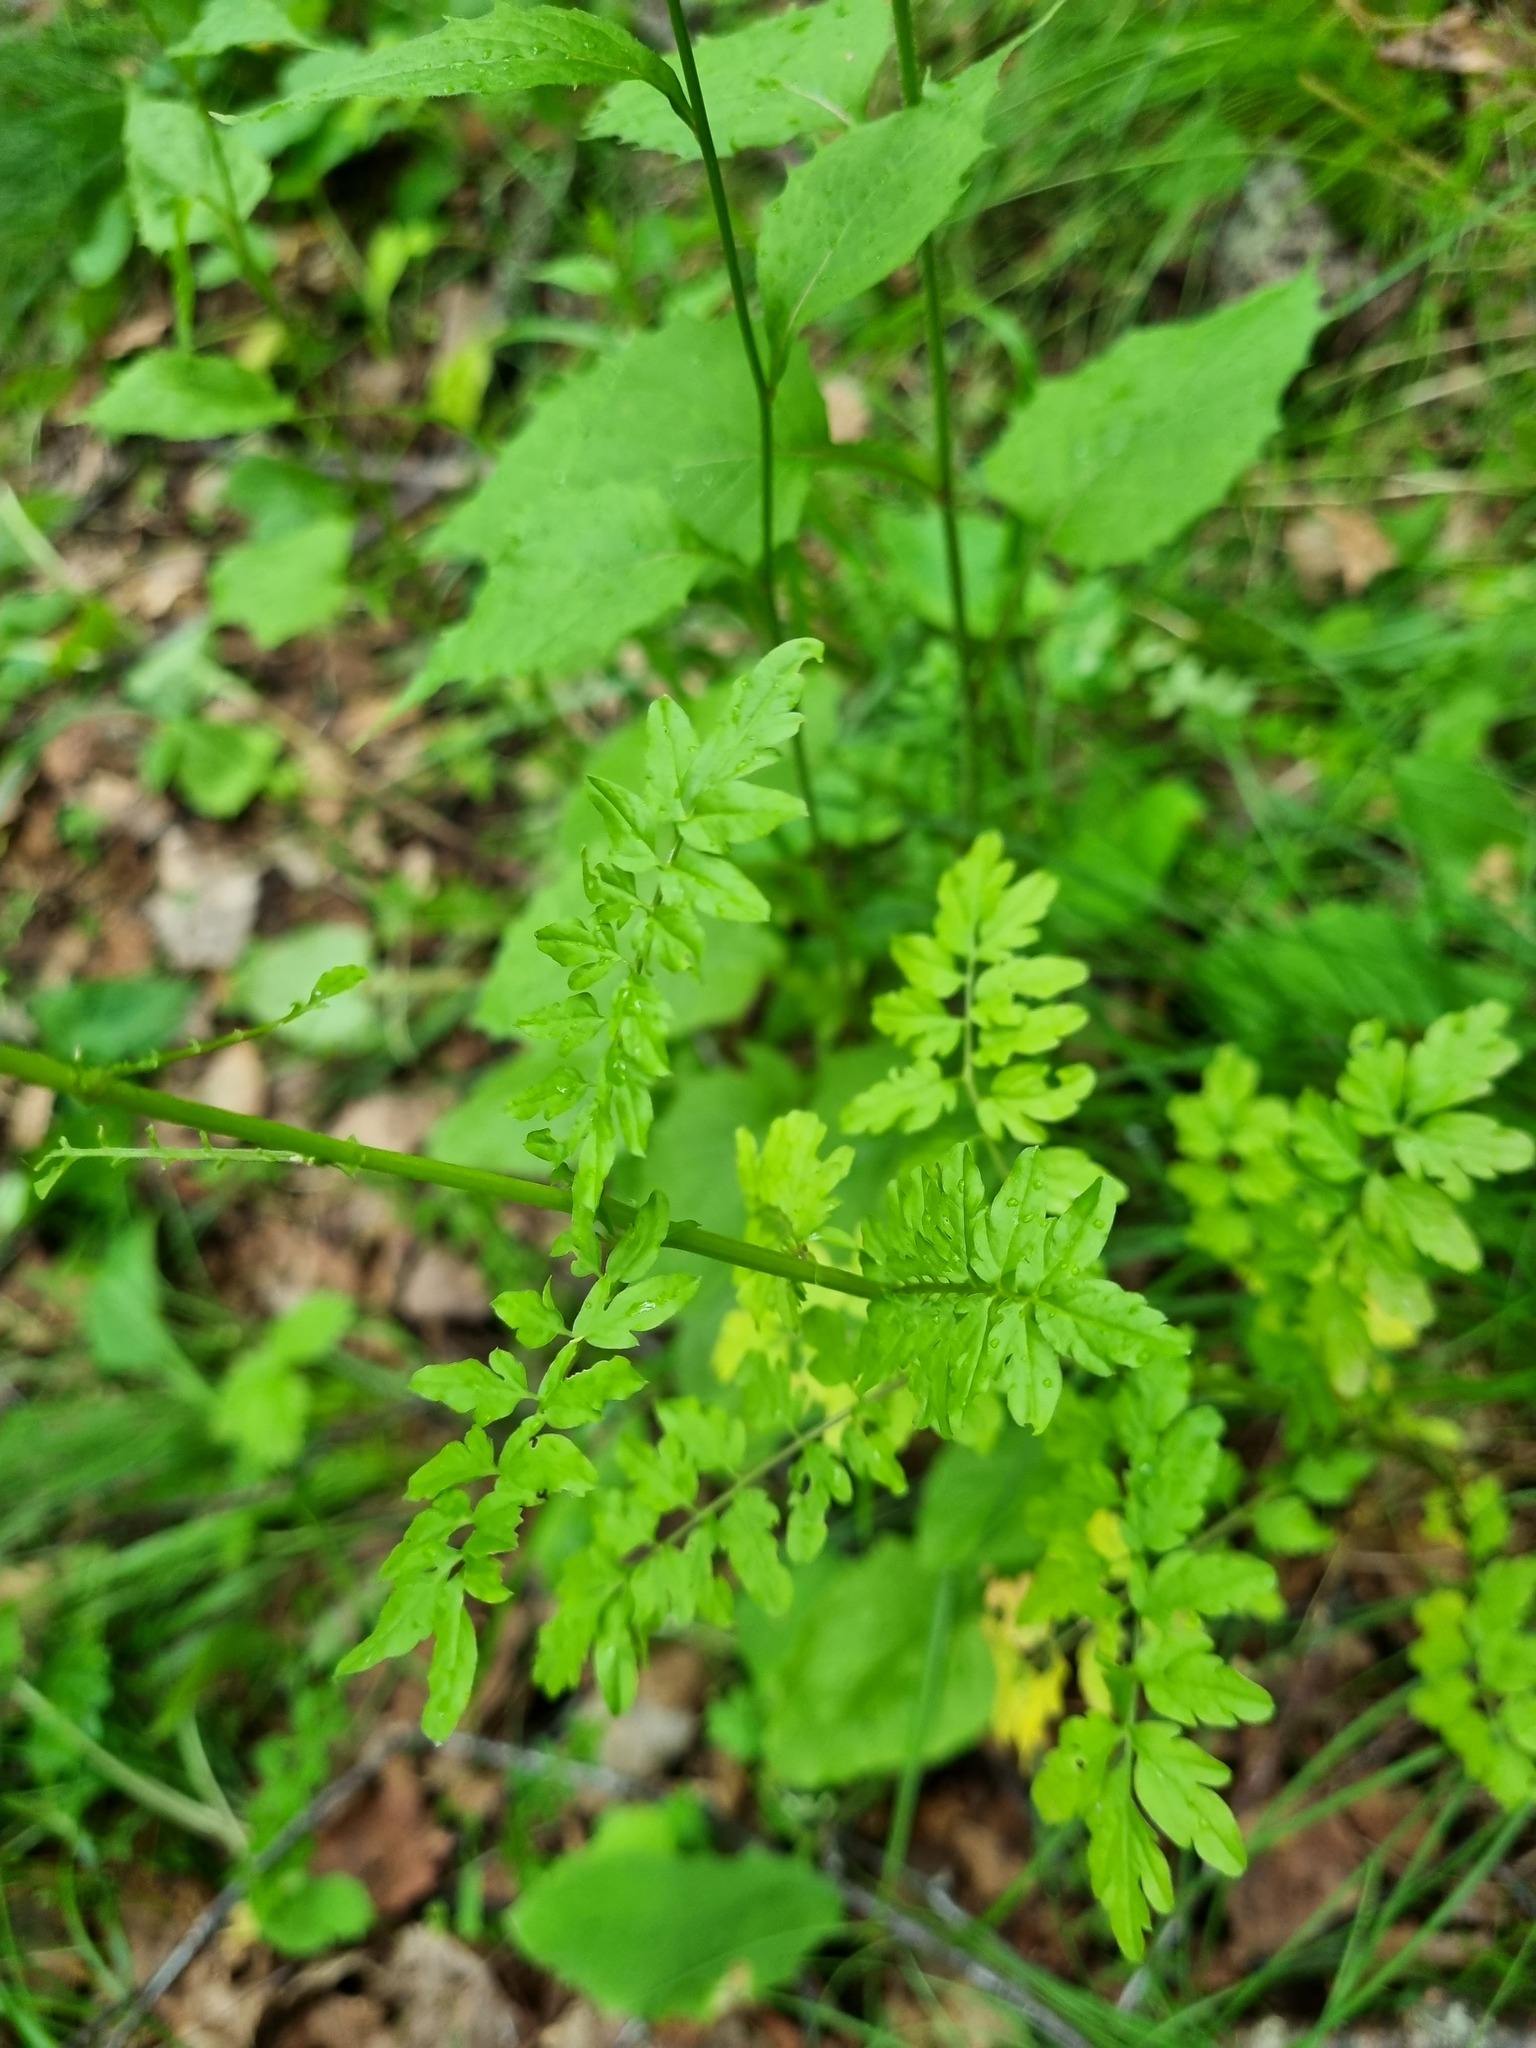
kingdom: Plantae
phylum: Tracheophyta
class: Magnoliopsida
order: Brassicales
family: Brassicaceae
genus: Cardamine
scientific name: Cardamine impatiens
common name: Narrow-leaved bitter-cress
